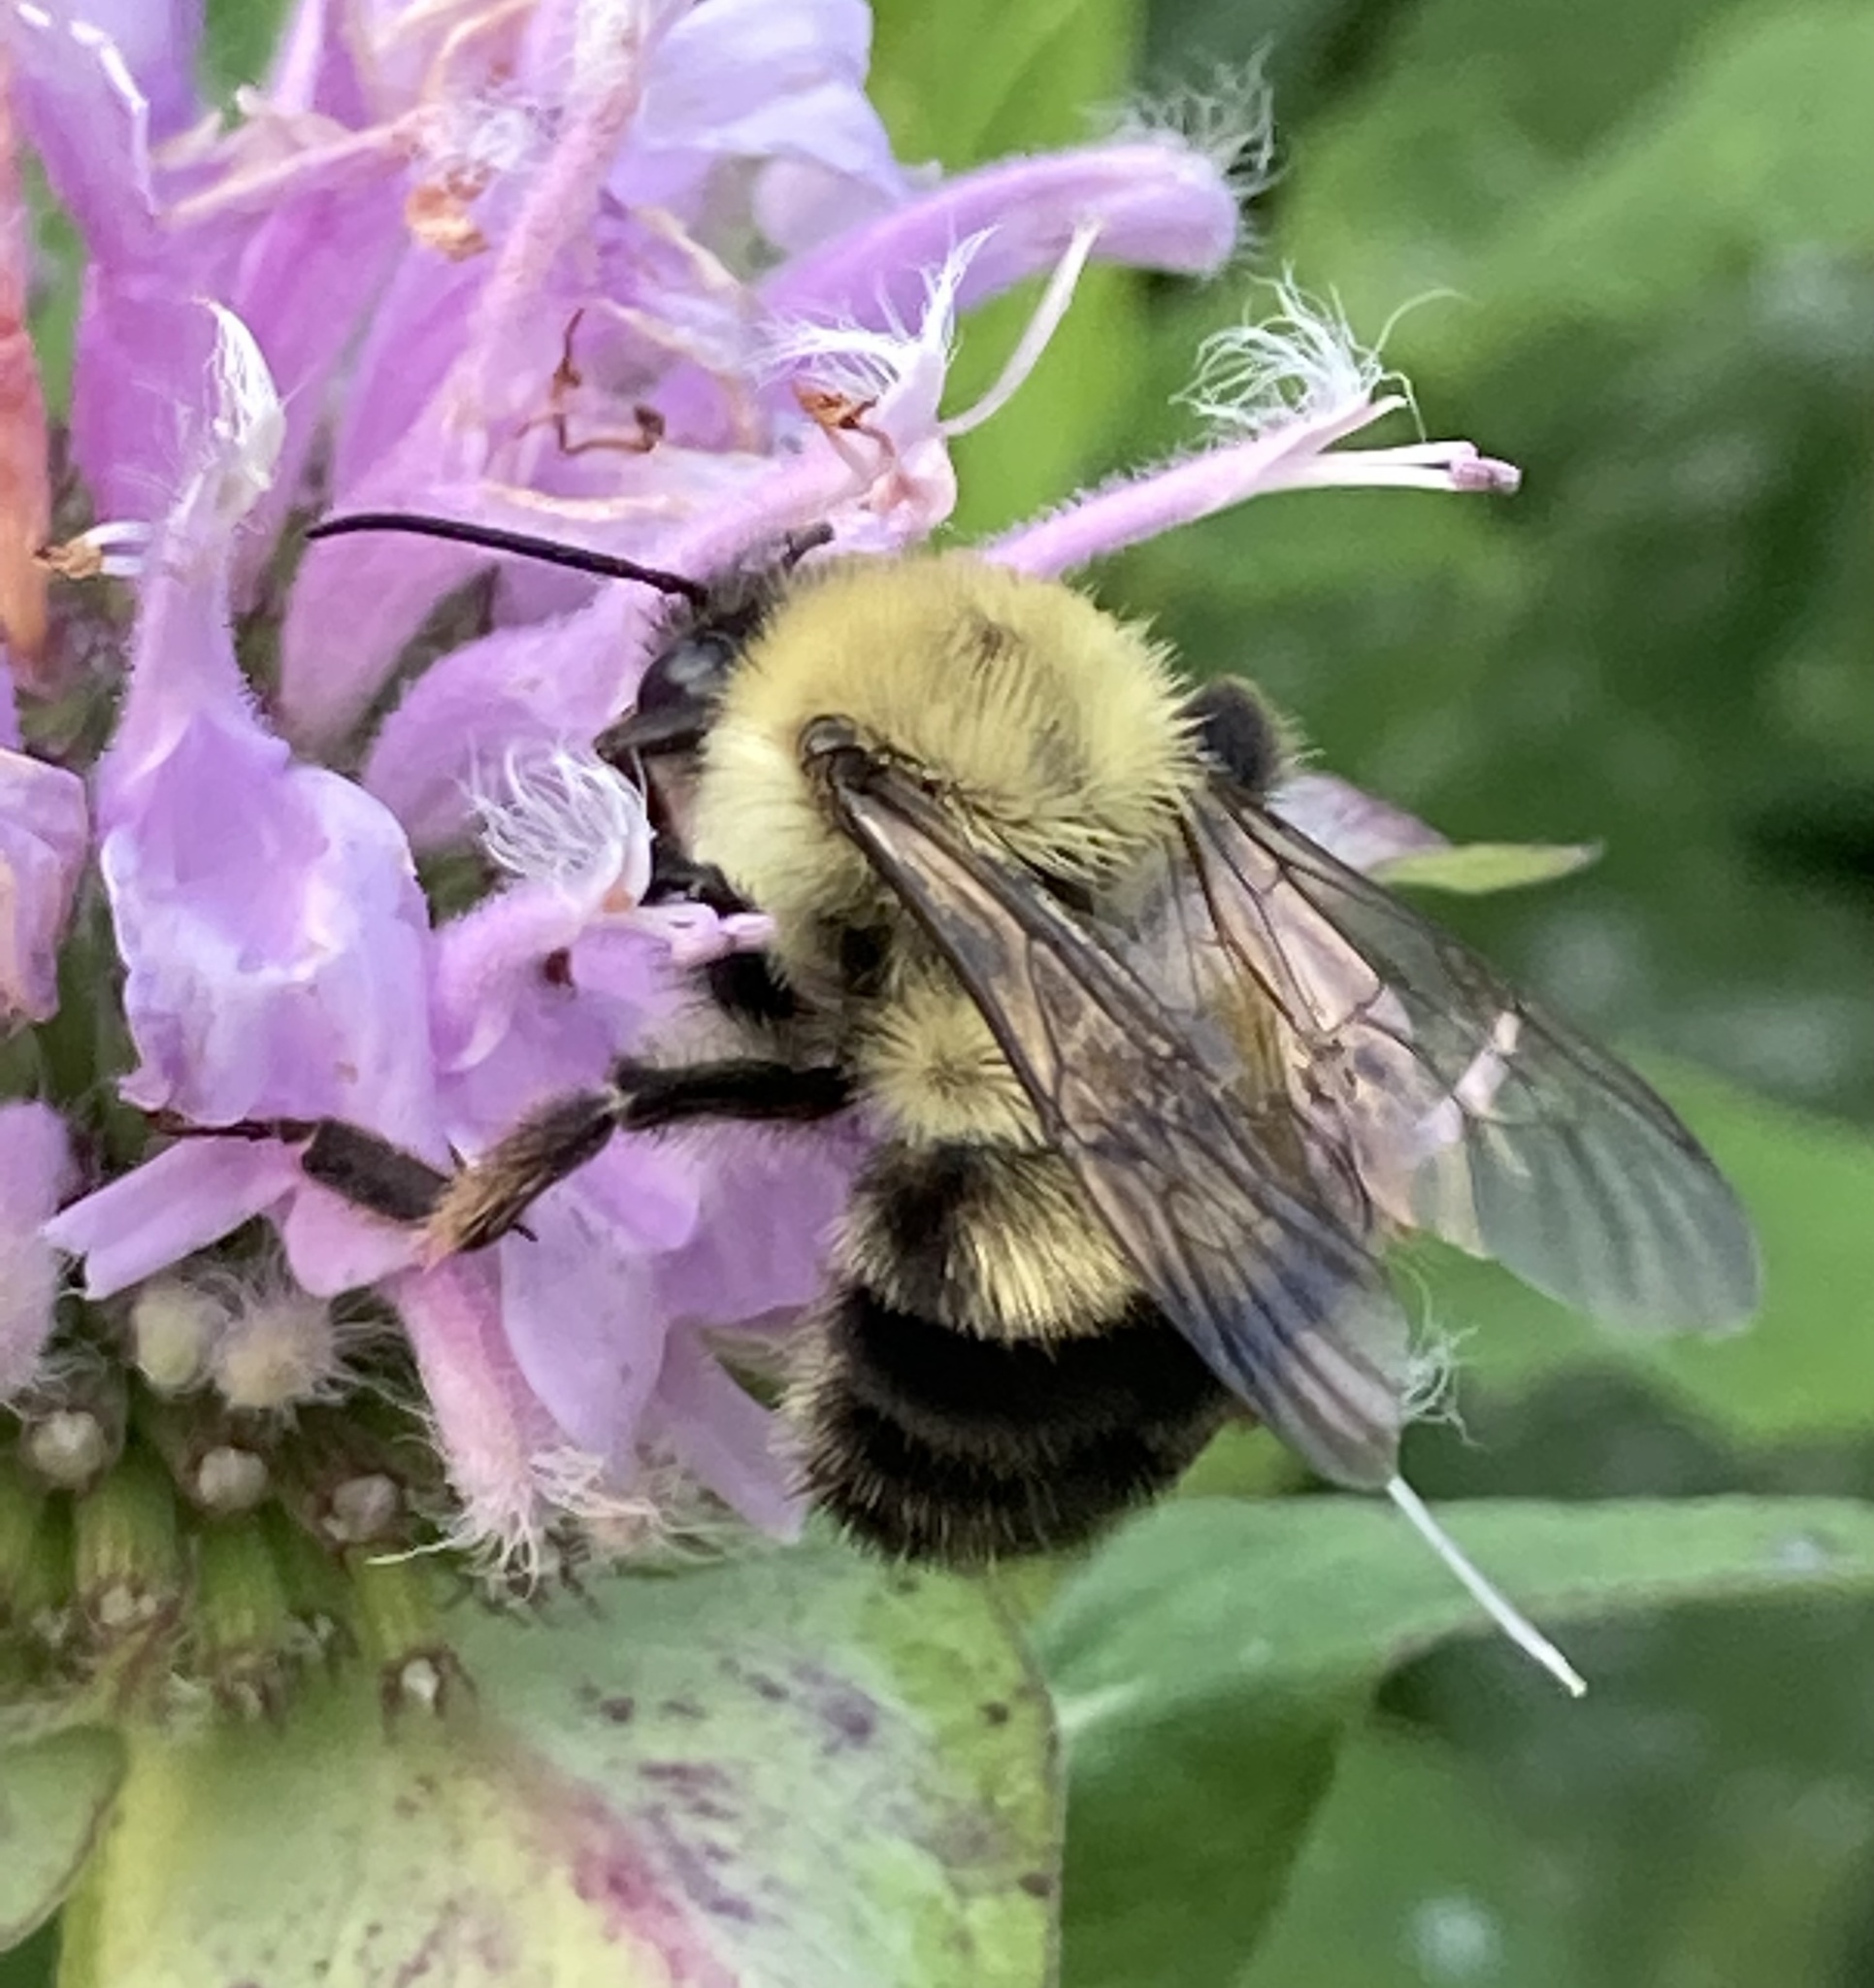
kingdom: Animalia
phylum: Arthropoda
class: Insecta
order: Hymenoptera
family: Apidae
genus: Bombus
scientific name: Bombus bimaculatus
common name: Two-spotted bumble bee
